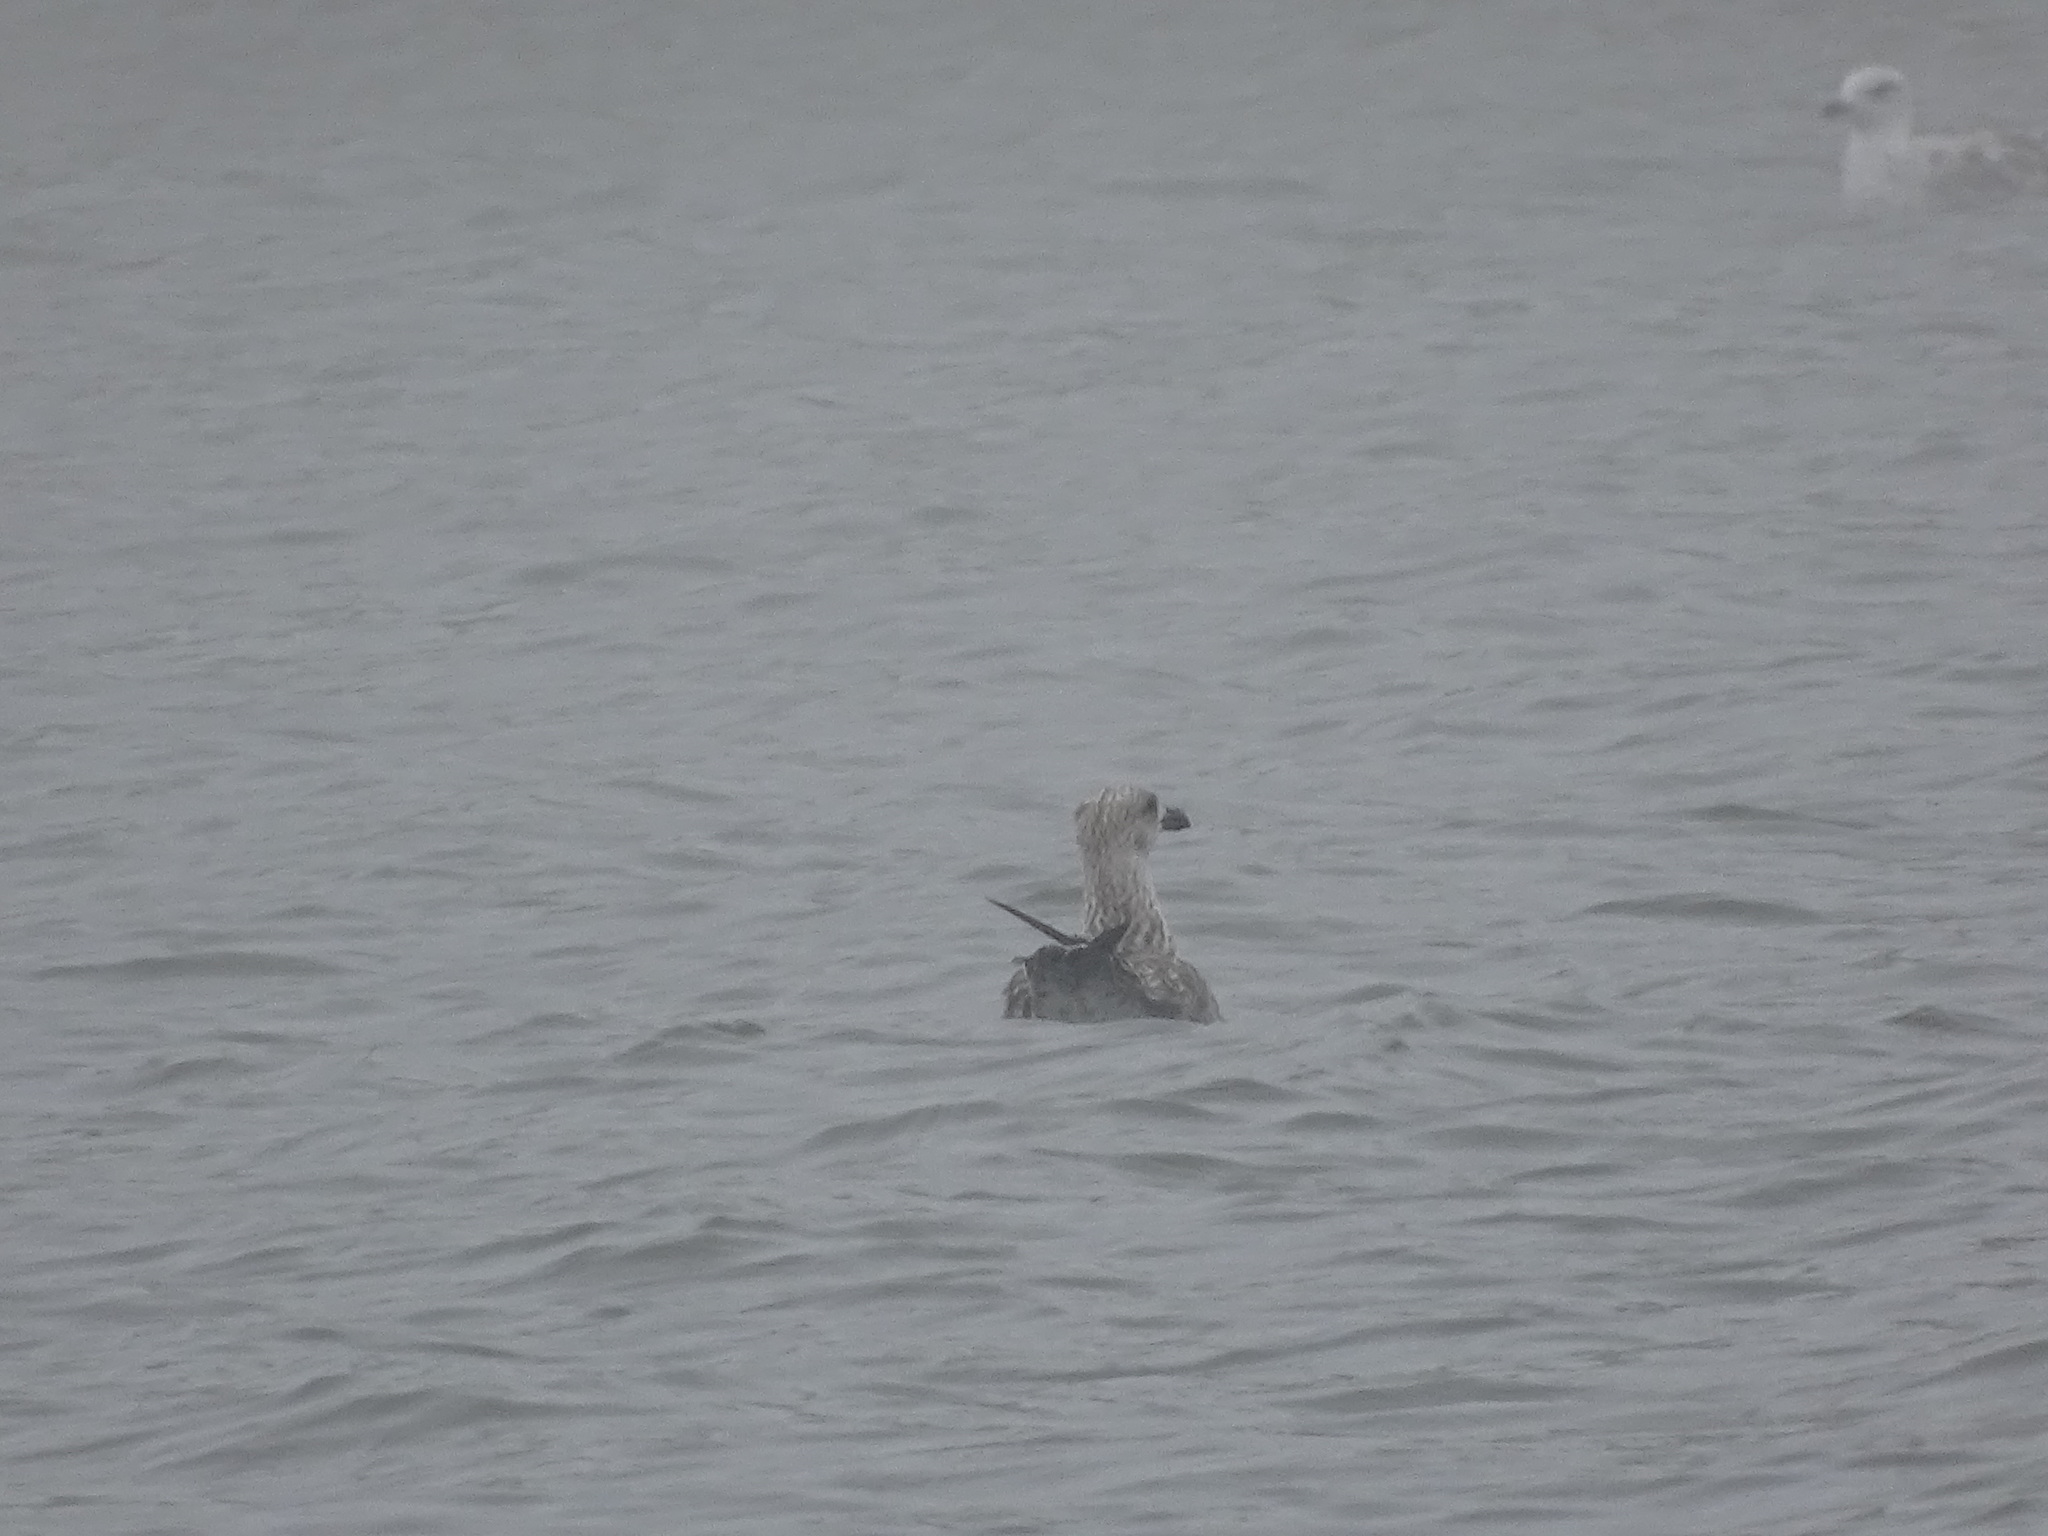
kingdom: Animalia
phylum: Chordata
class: Aves
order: Charadriiformes
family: Laridae
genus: Larus
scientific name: Larus fuscus
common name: Lesser black-backed gull
